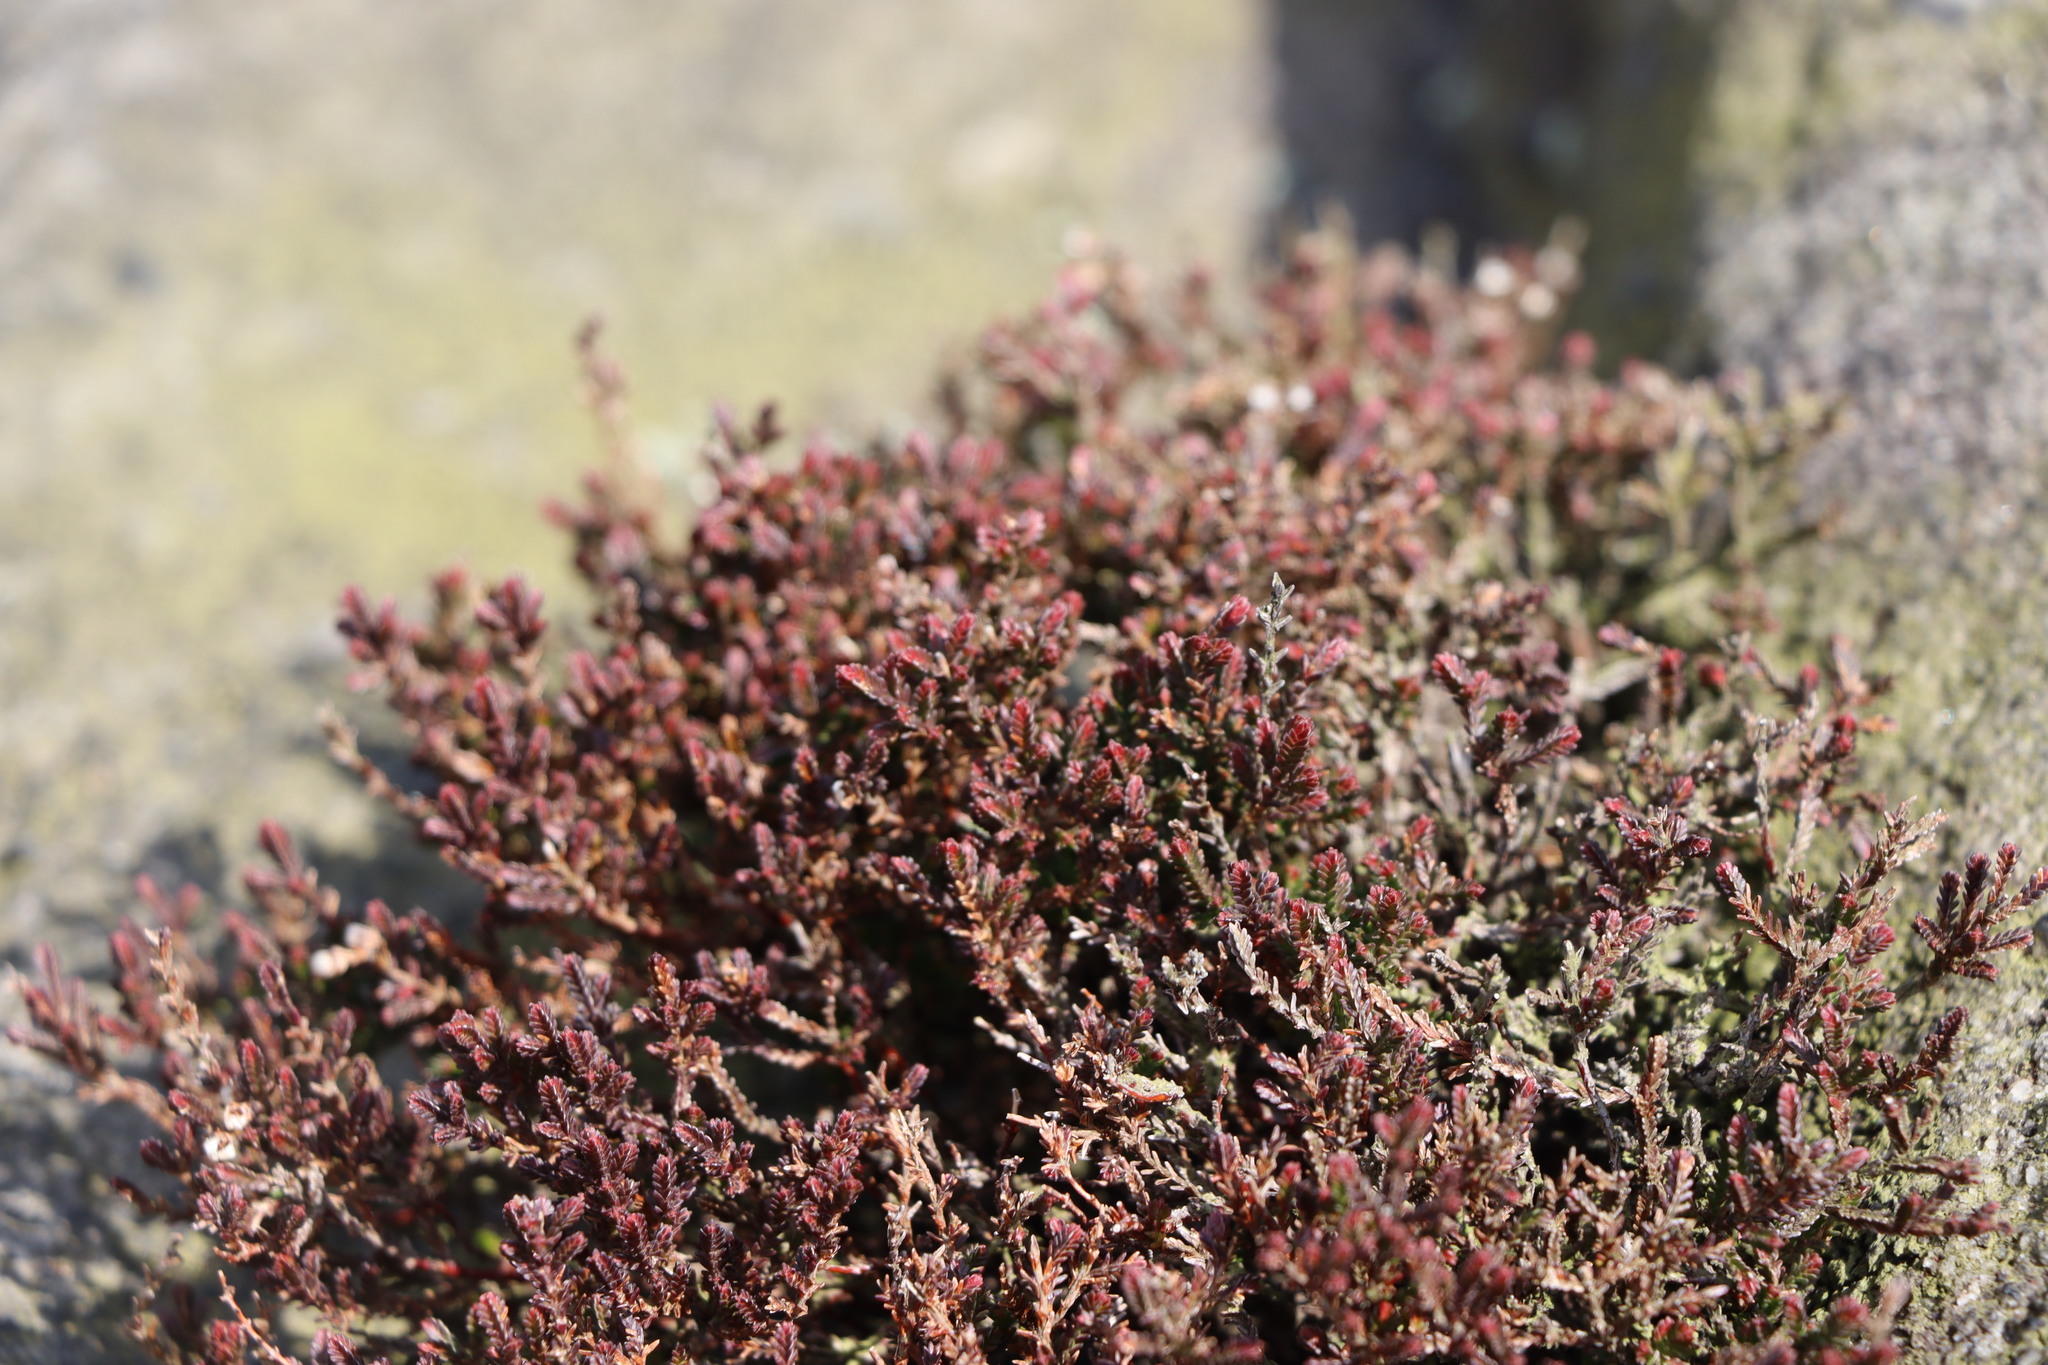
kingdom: Plantae
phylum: Tracheophyta
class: Magnoliopsida
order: Ericales
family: Ericaceae
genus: Calluna
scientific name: Calluna vulgaris
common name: Heather
